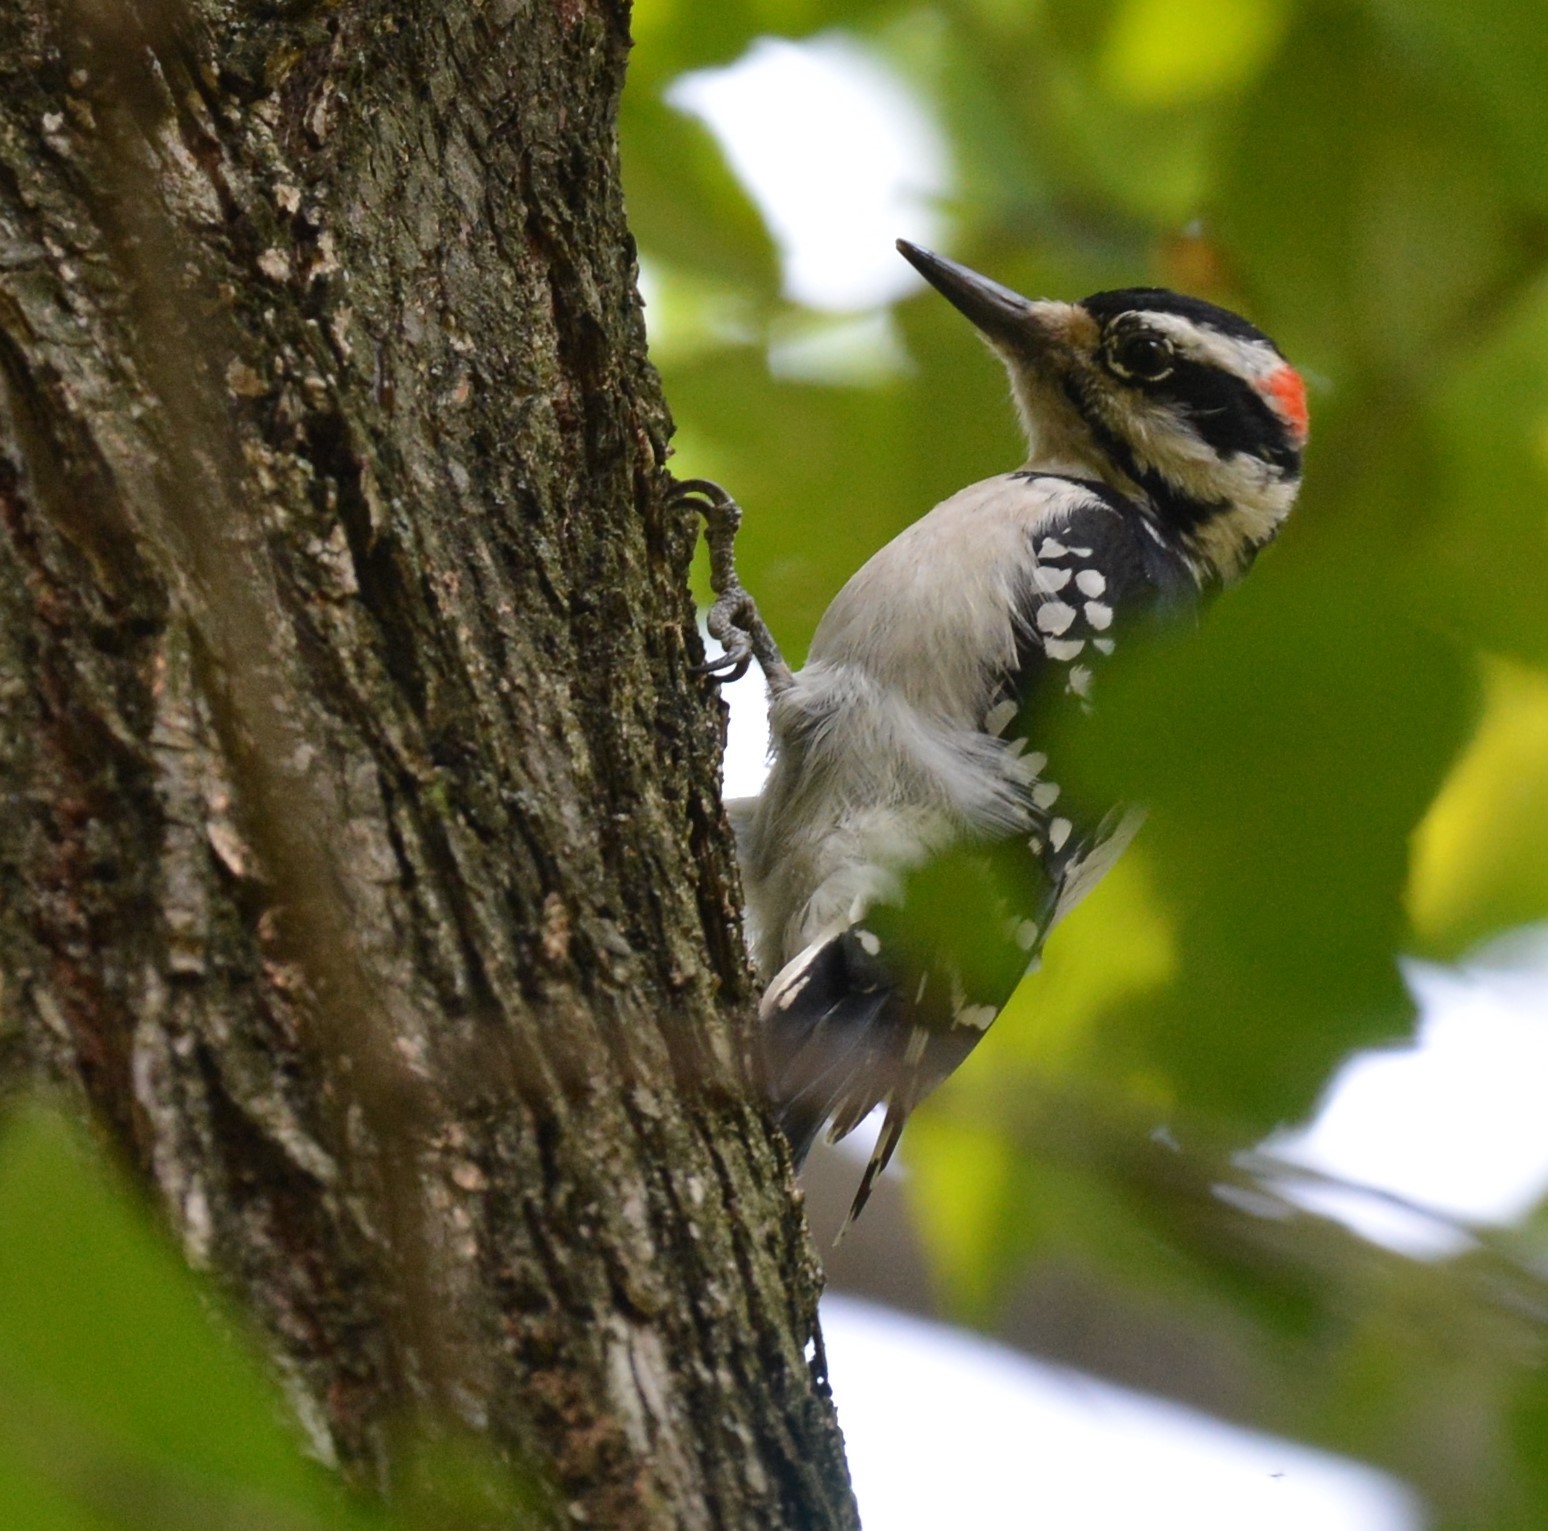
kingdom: Animalia
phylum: Chordata
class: Aves
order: Piciformes
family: Picidae
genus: Leuconotopicus
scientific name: Leuconotopicus villosus
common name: Hairy woodpecker
